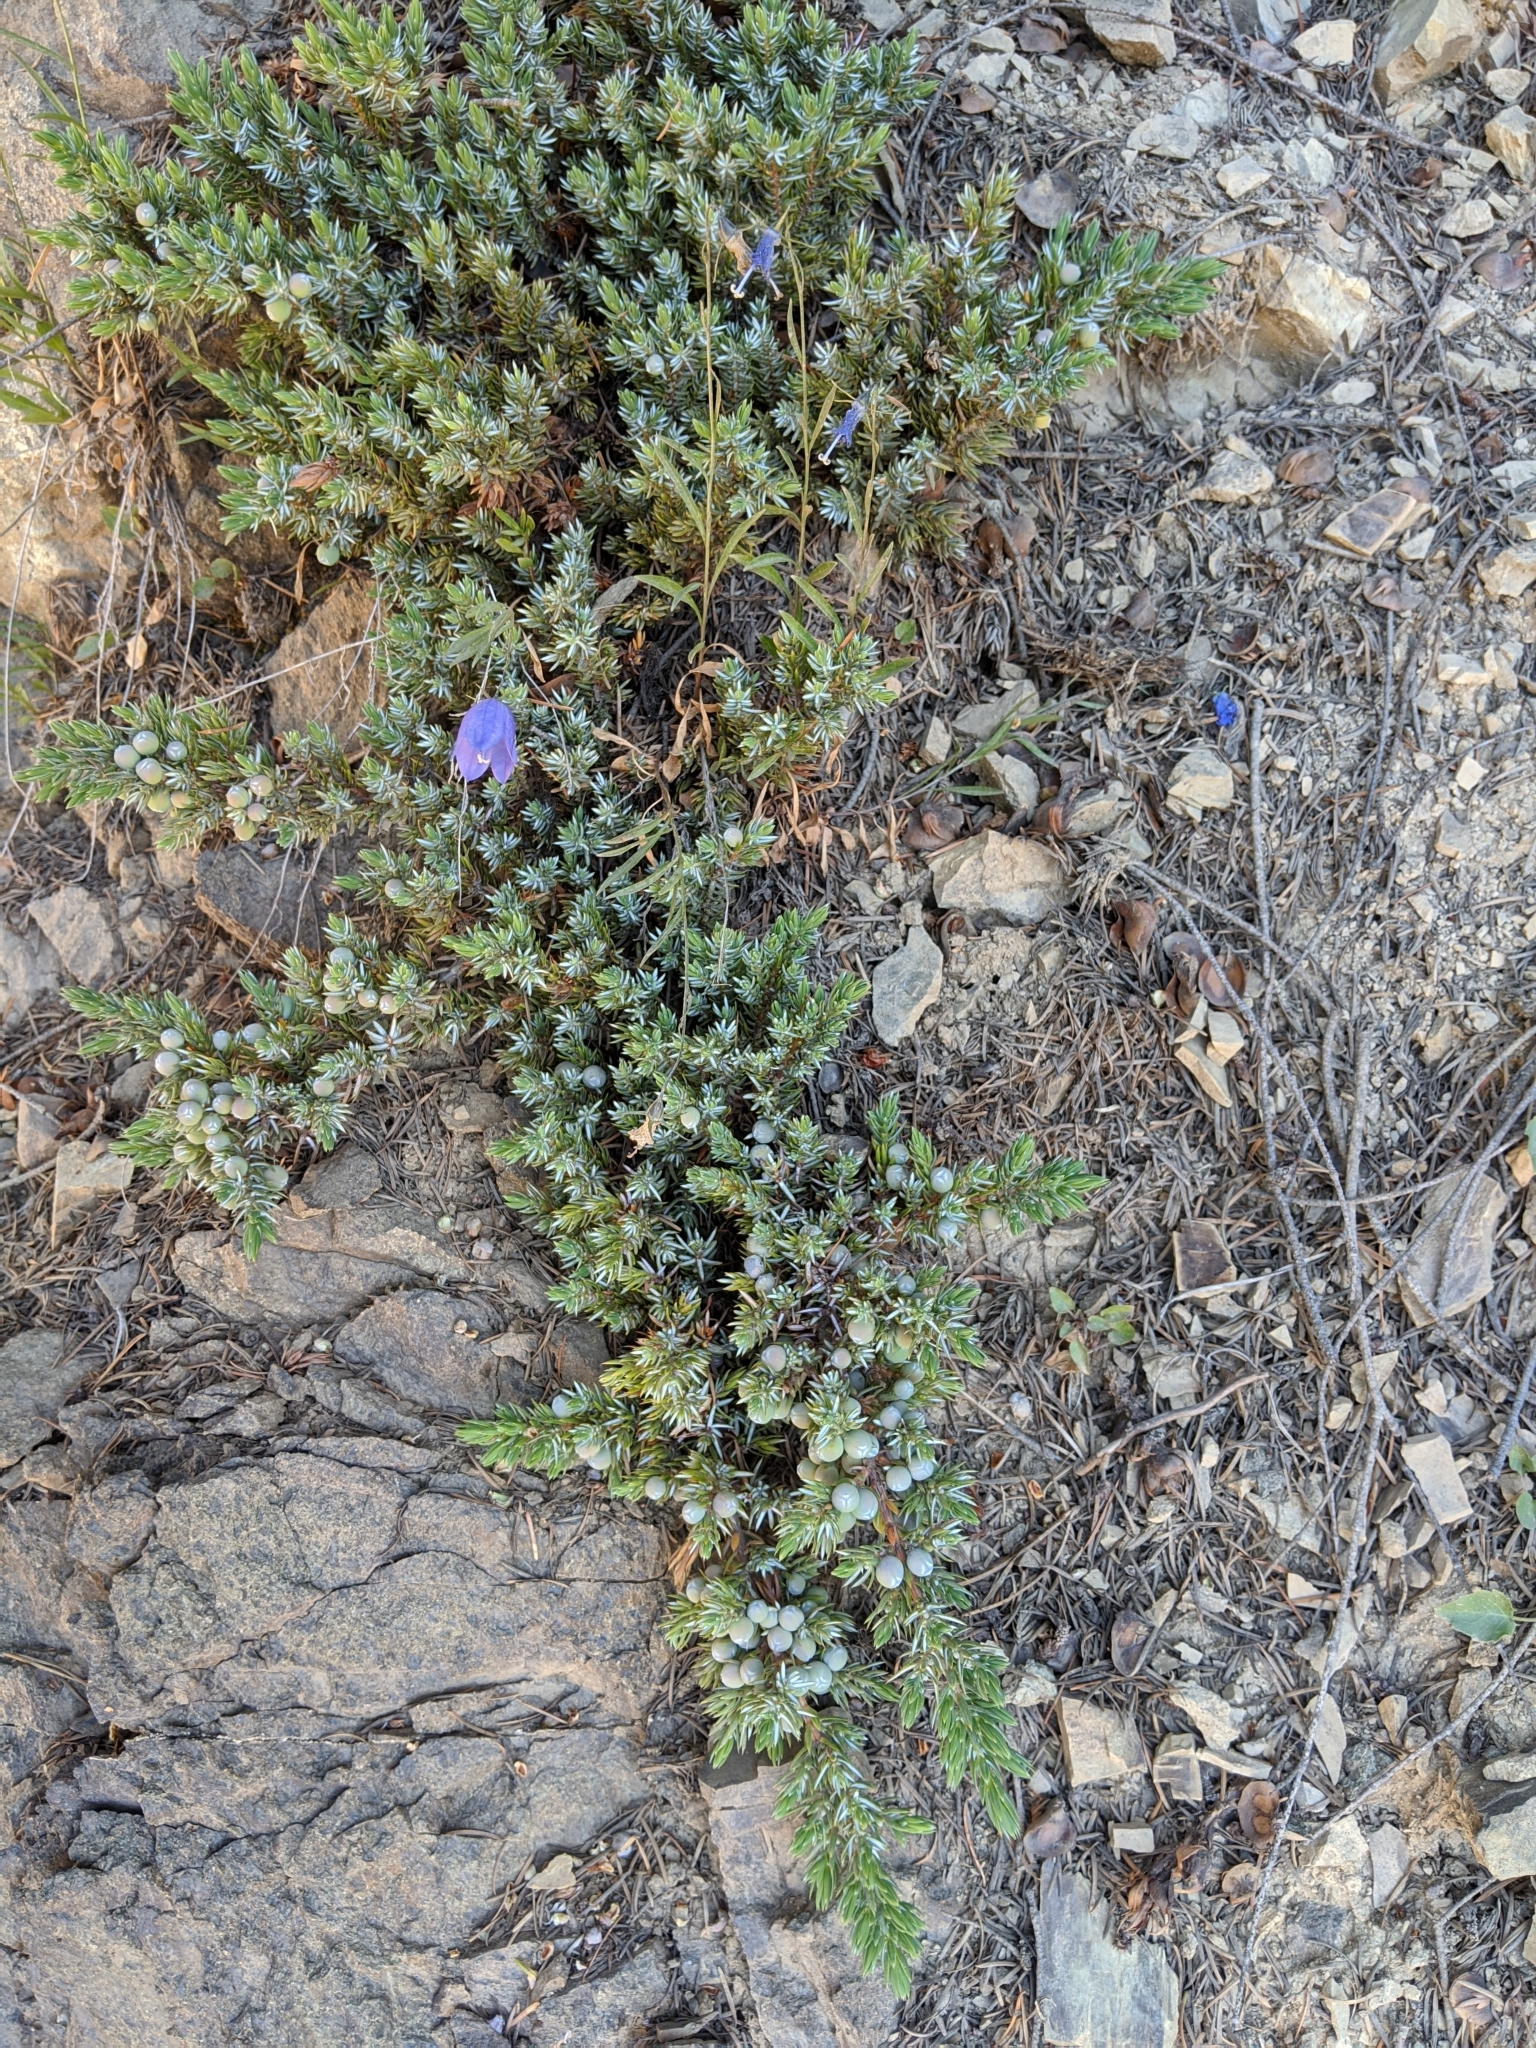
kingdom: Plantae
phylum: Tracheophyta
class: Pinopsida
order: Pinales
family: Cupressaceae
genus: Juniperus
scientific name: Juniperus communis
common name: Common juniper
